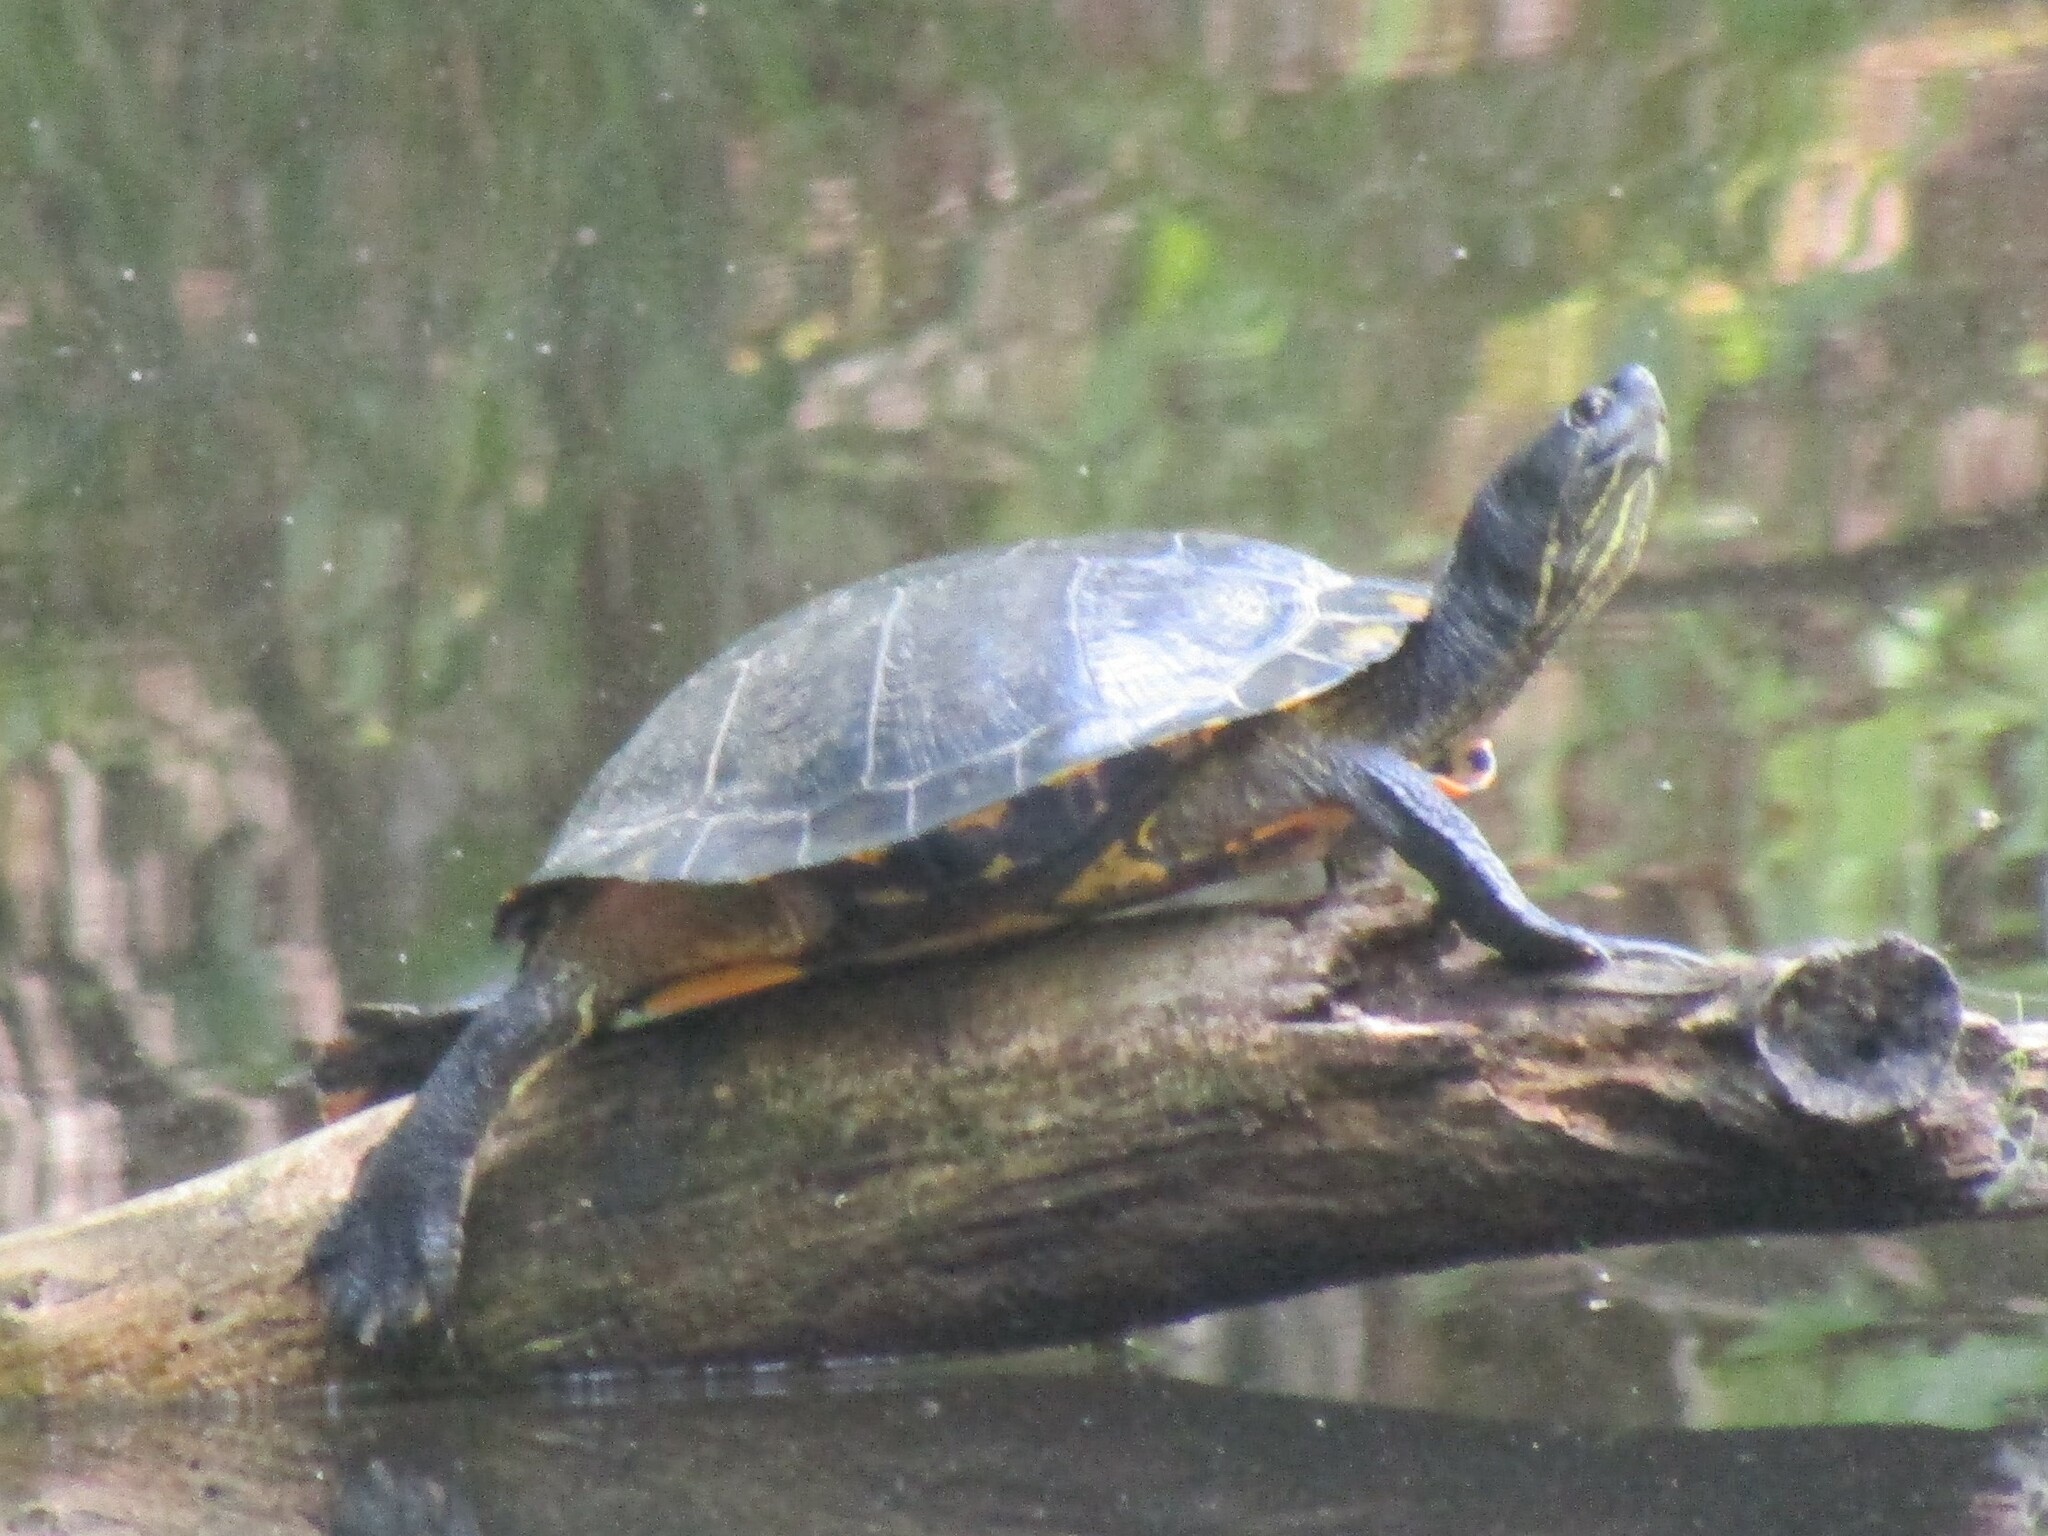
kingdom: Animalia
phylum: Chordata
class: Testudines
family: Emydidae
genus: Trachemys
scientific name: Trachemys scripta
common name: Slider
